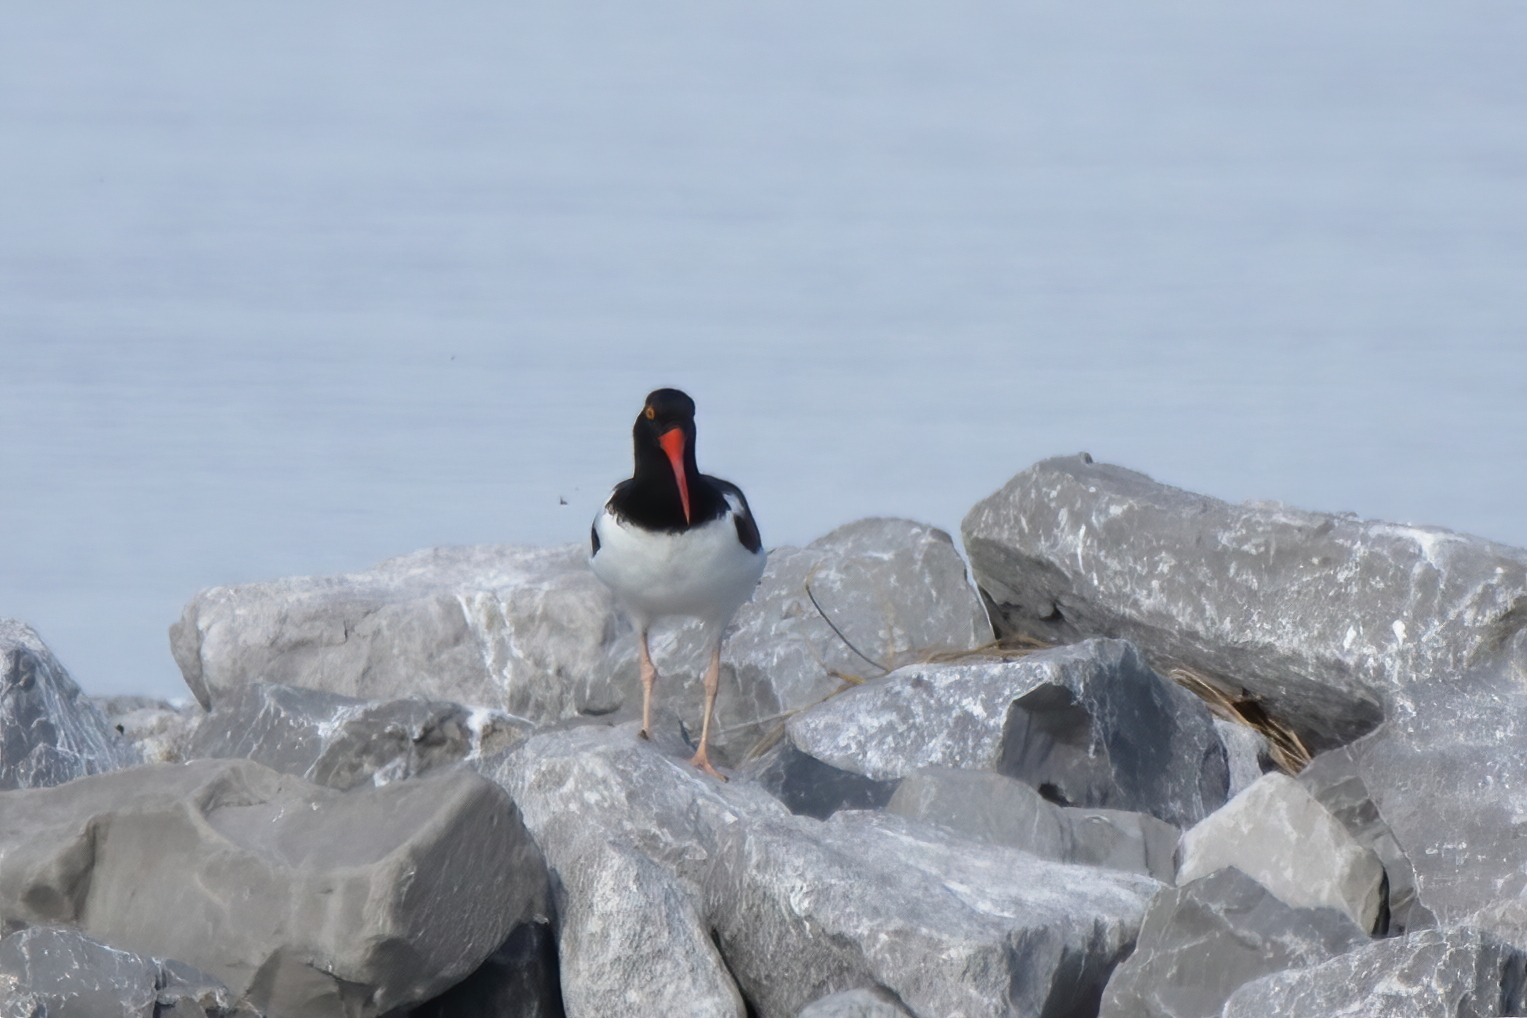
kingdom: Animalia
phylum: Chordata
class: Aves
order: Charadriiformes
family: Haematopodidae
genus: Haematopus
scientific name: Haematopus palliatus
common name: American oystercatcher
